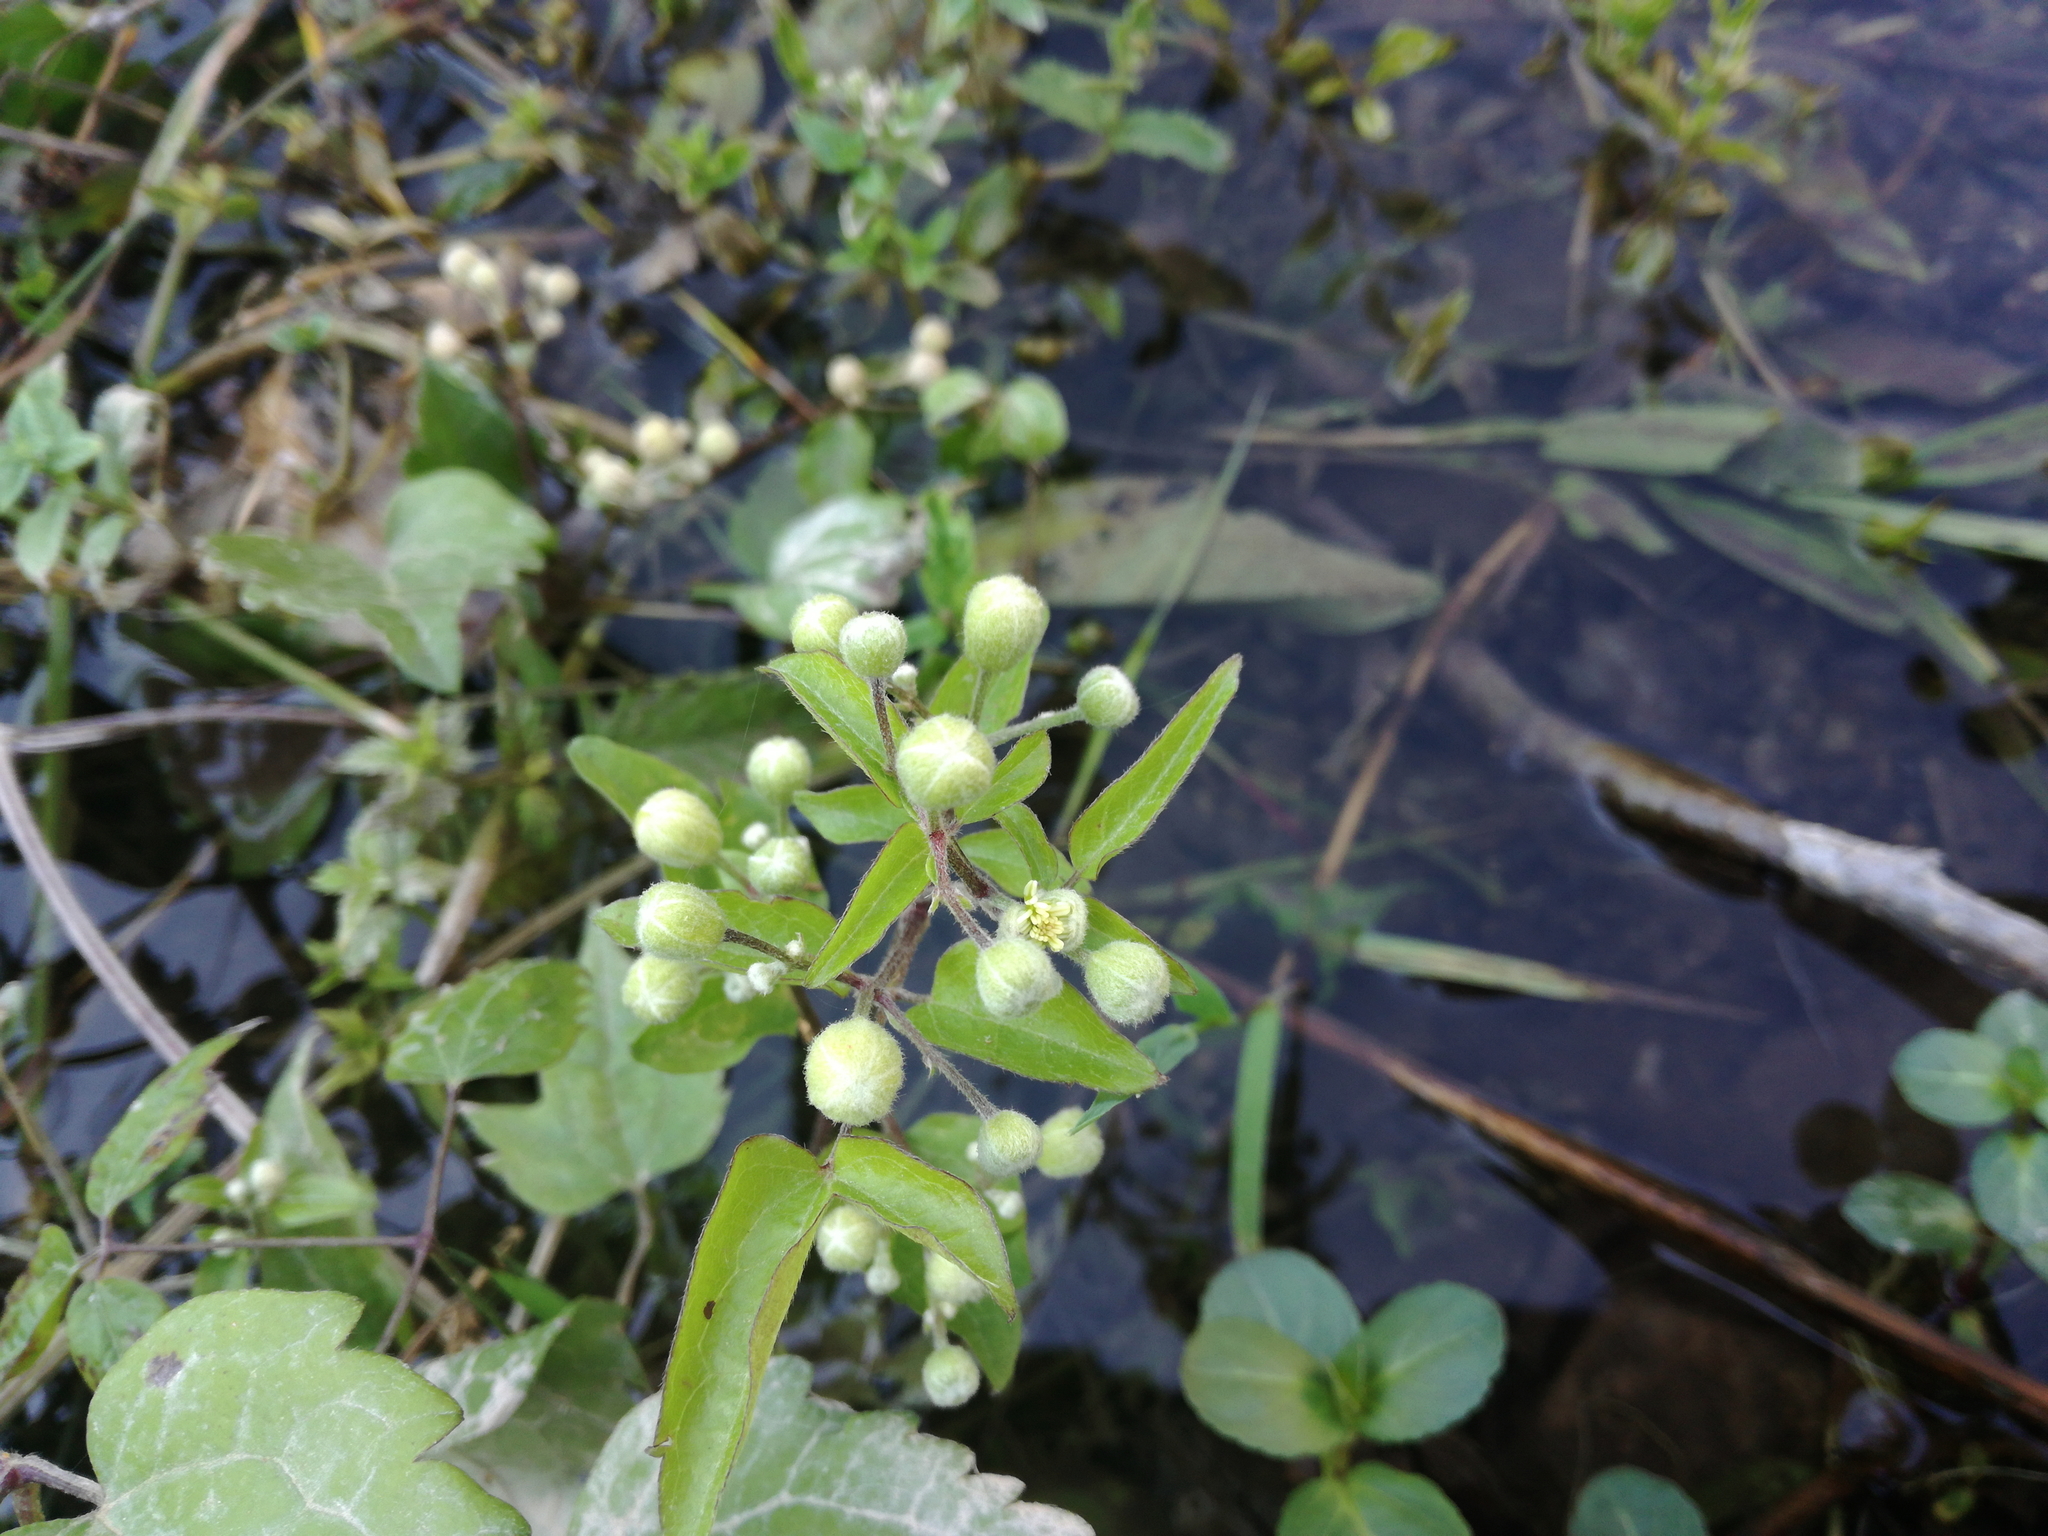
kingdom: Plantae
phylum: Tracheophyta
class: Magnoliopsida
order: Ranunculales
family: Ranunculaceae
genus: Clematis
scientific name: Clematis vitalba
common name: Evergreen clematis
